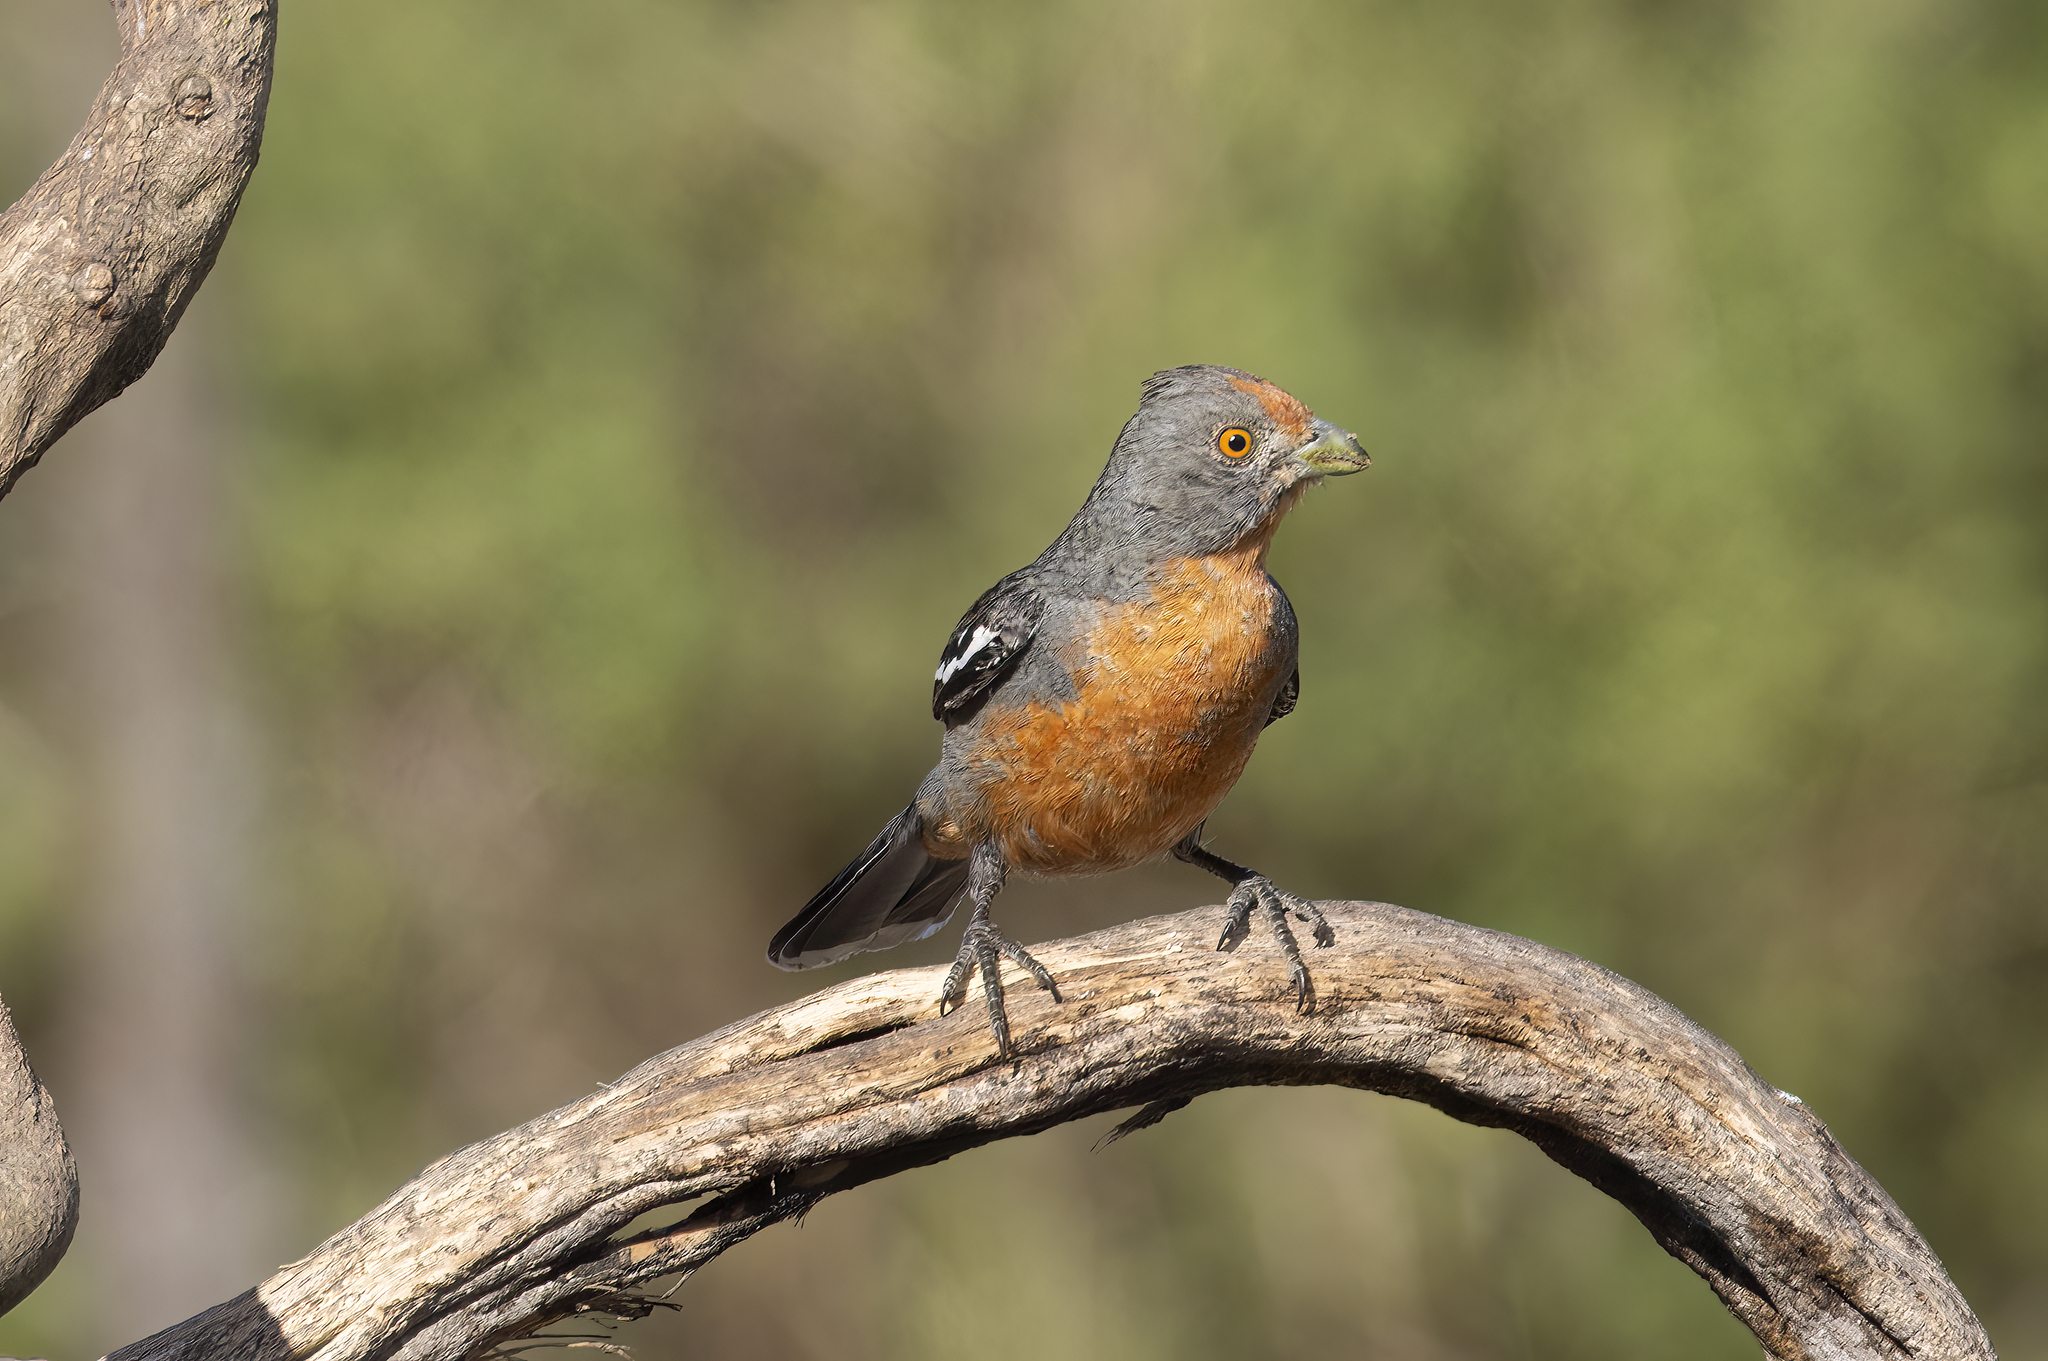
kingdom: Animalia
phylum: Chordata
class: Aves
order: Passeriformes
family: Cotingidae
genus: Phytotoma
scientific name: Phytotoma rutila
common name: White-tipped plantcutter
